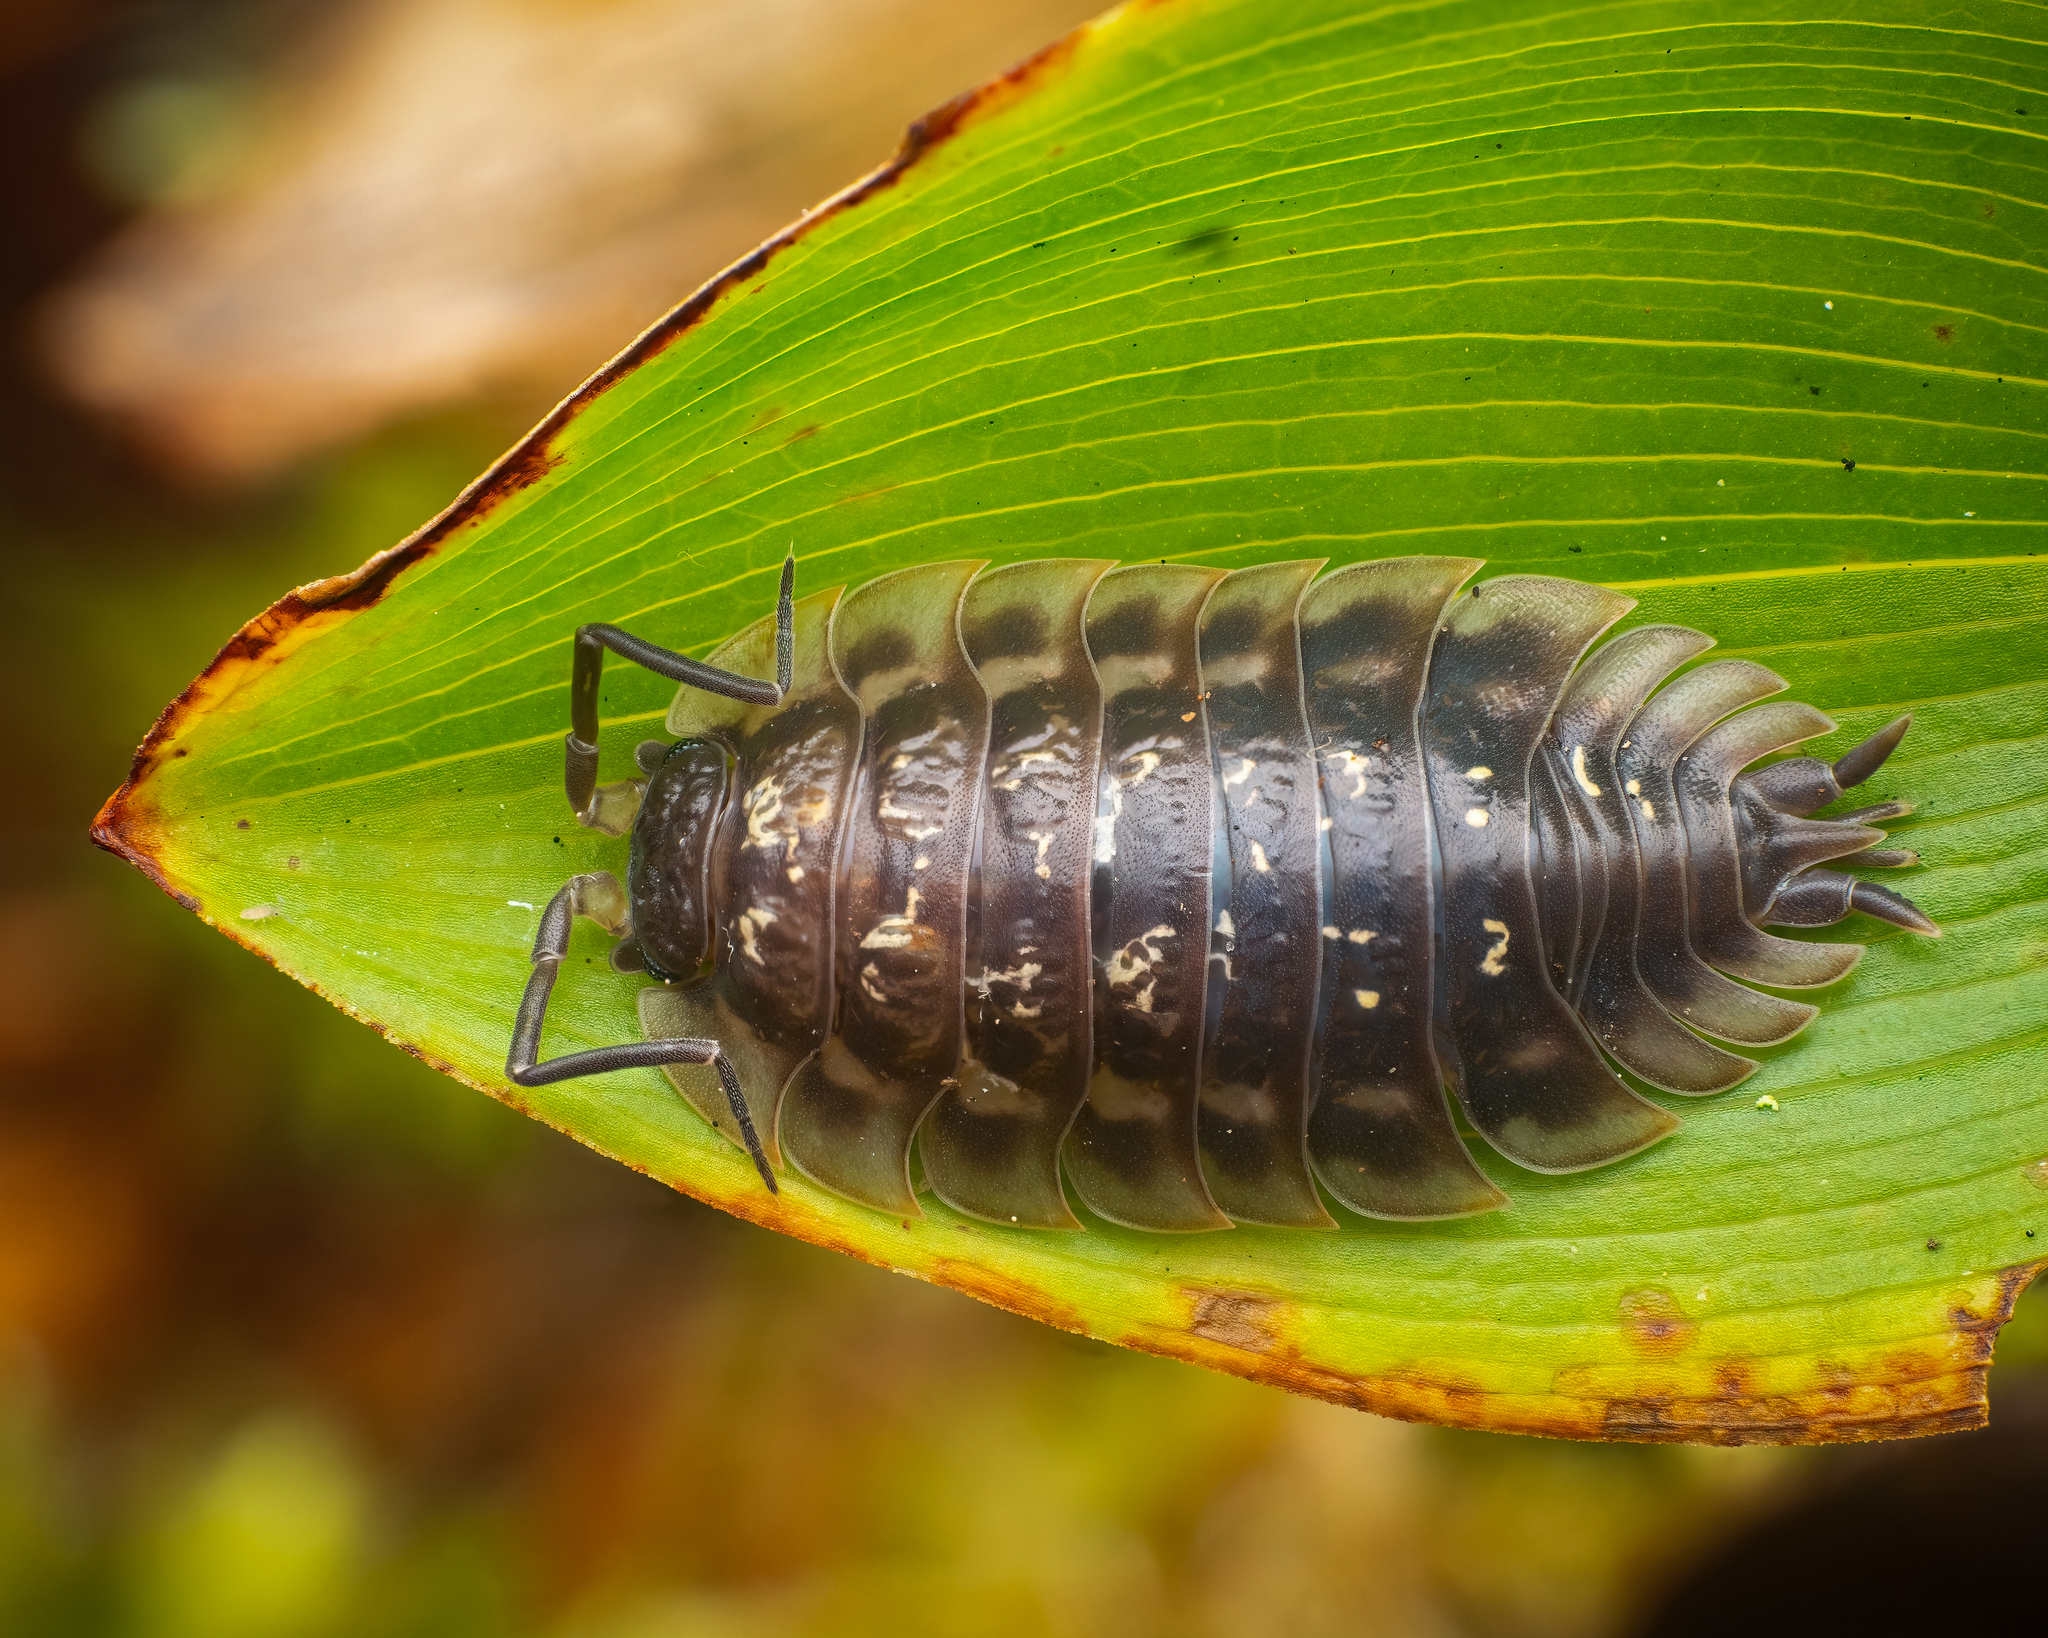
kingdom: Animalia
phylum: Arthropoda
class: Malacostraca
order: Isopoda
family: Oniscidae
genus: Oniscus
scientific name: Oniscus asellus
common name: Common shiny woodlouse
